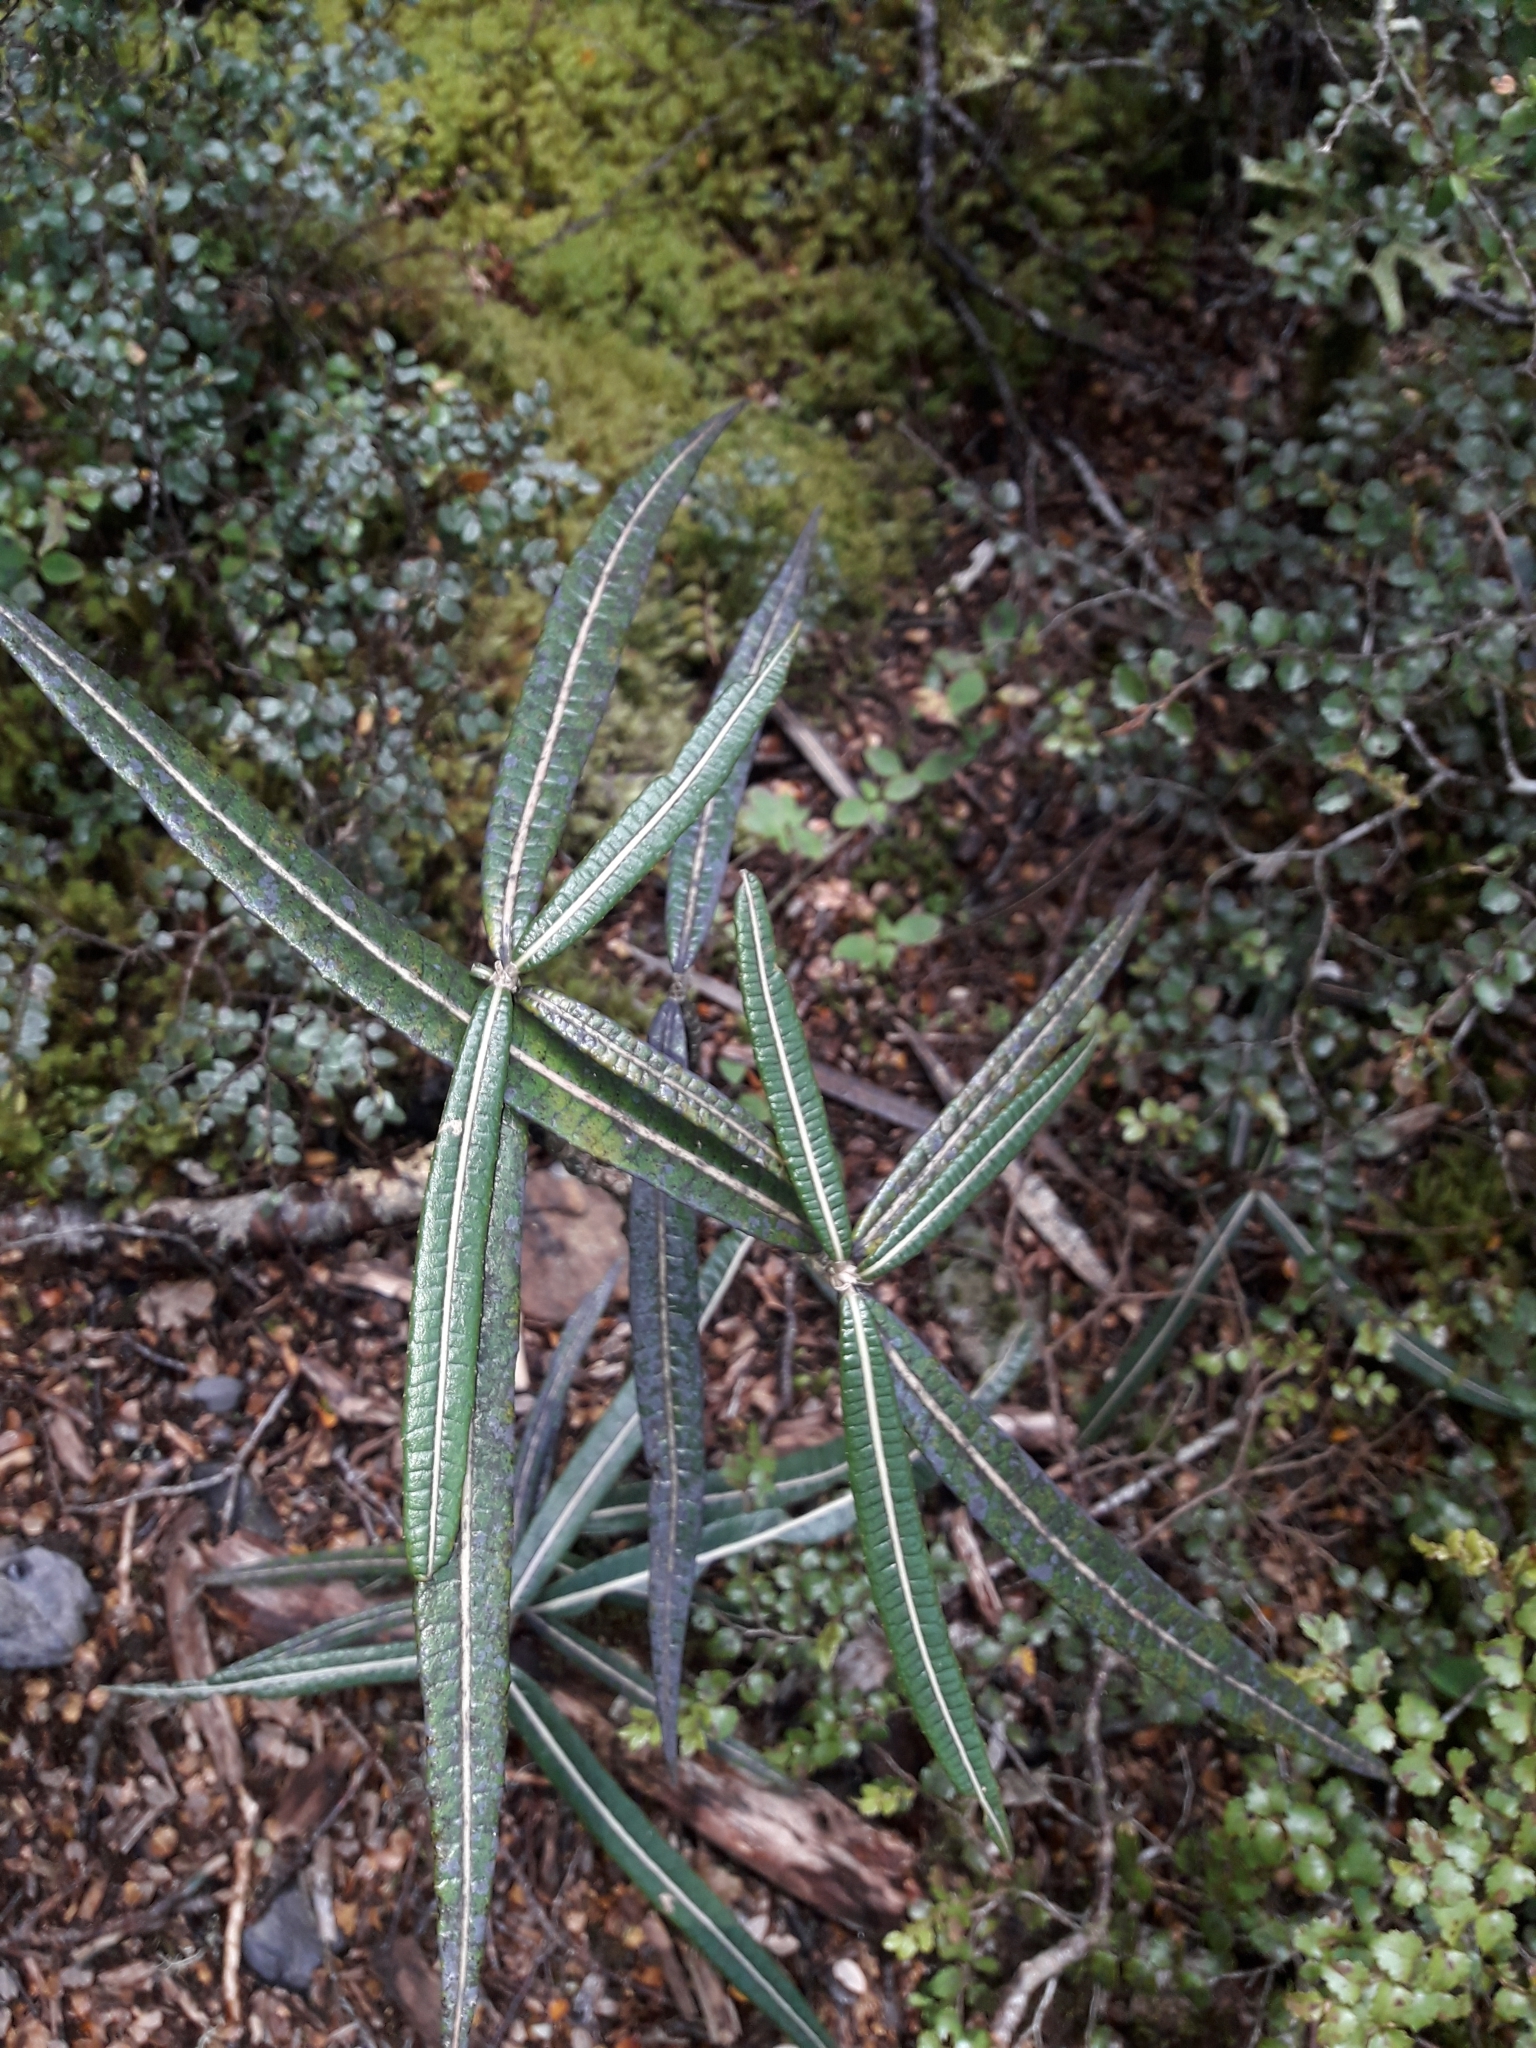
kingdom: Plantae
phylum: Tracheophyta
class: Magnoliopsida
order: Asterales
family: Asteraceae
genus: Olearia
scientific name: Olearia lacunosa
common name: Lancewood tree daisy
